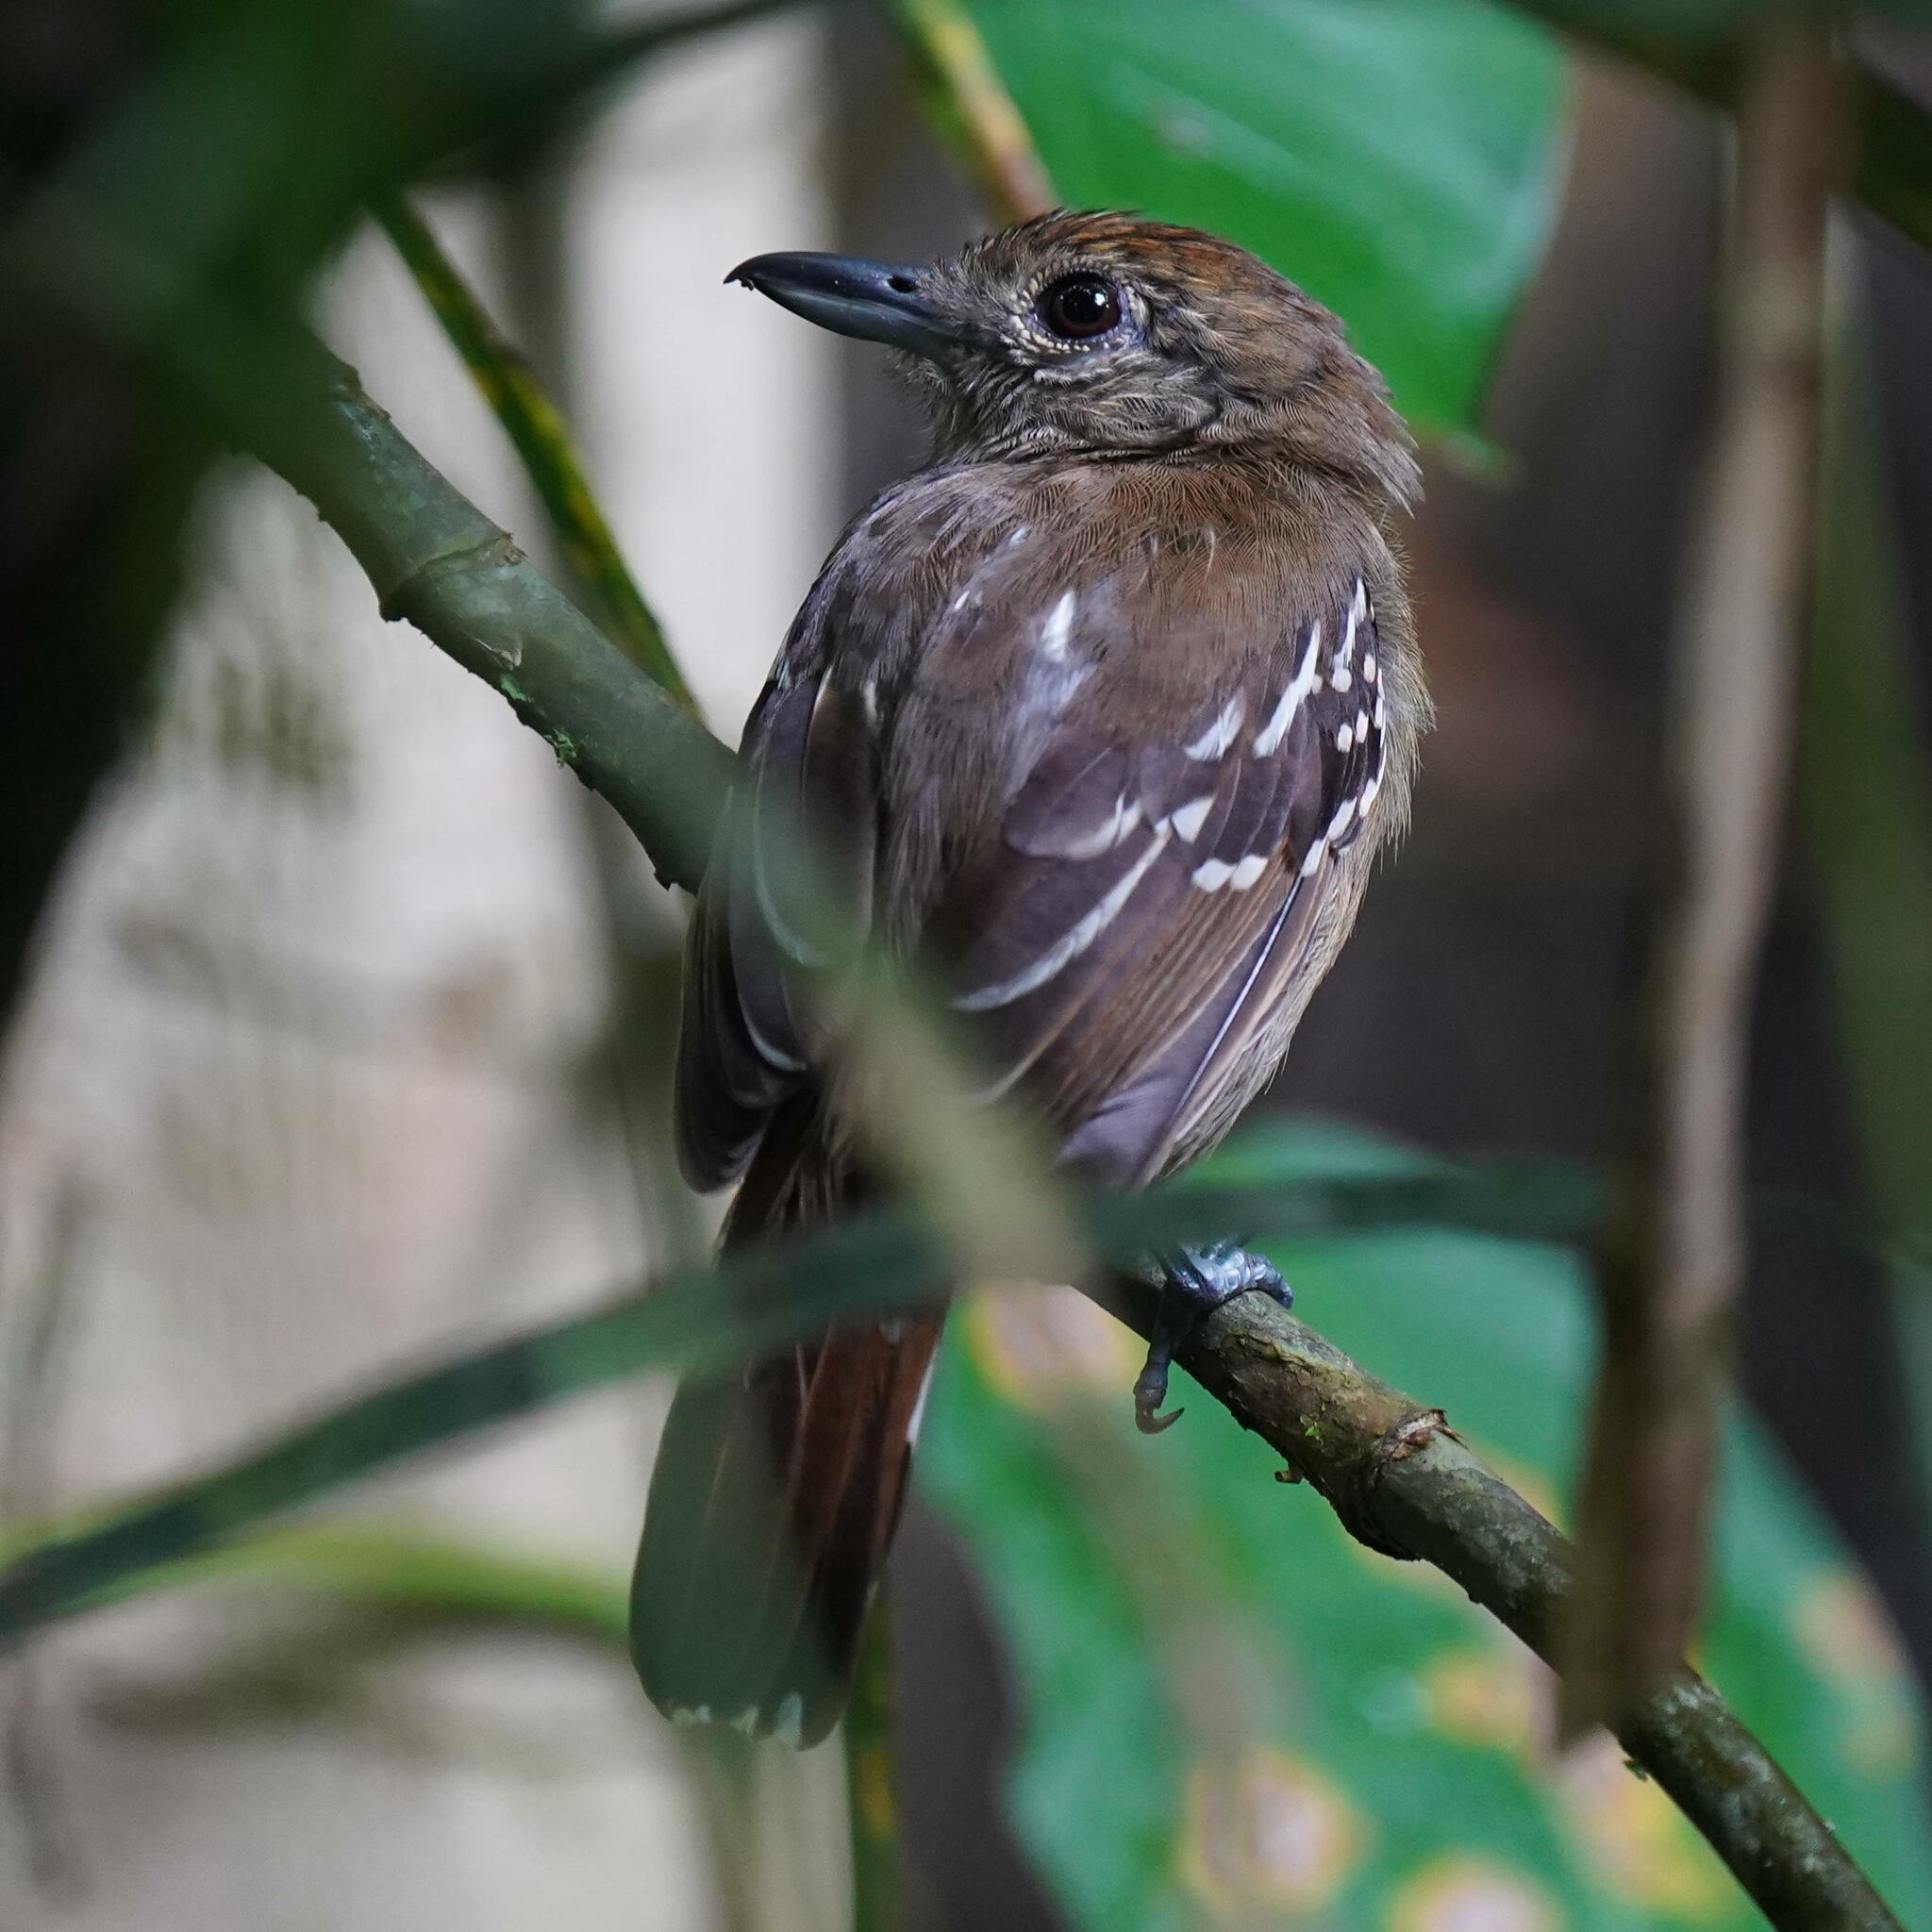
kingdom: Animalia
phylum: Chordata
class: Aves
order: Passeriformes
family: Thamnophilidae
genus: Thamnophilus
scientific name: Thamnophilus atrinucha
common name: Black-crowned antshrike
